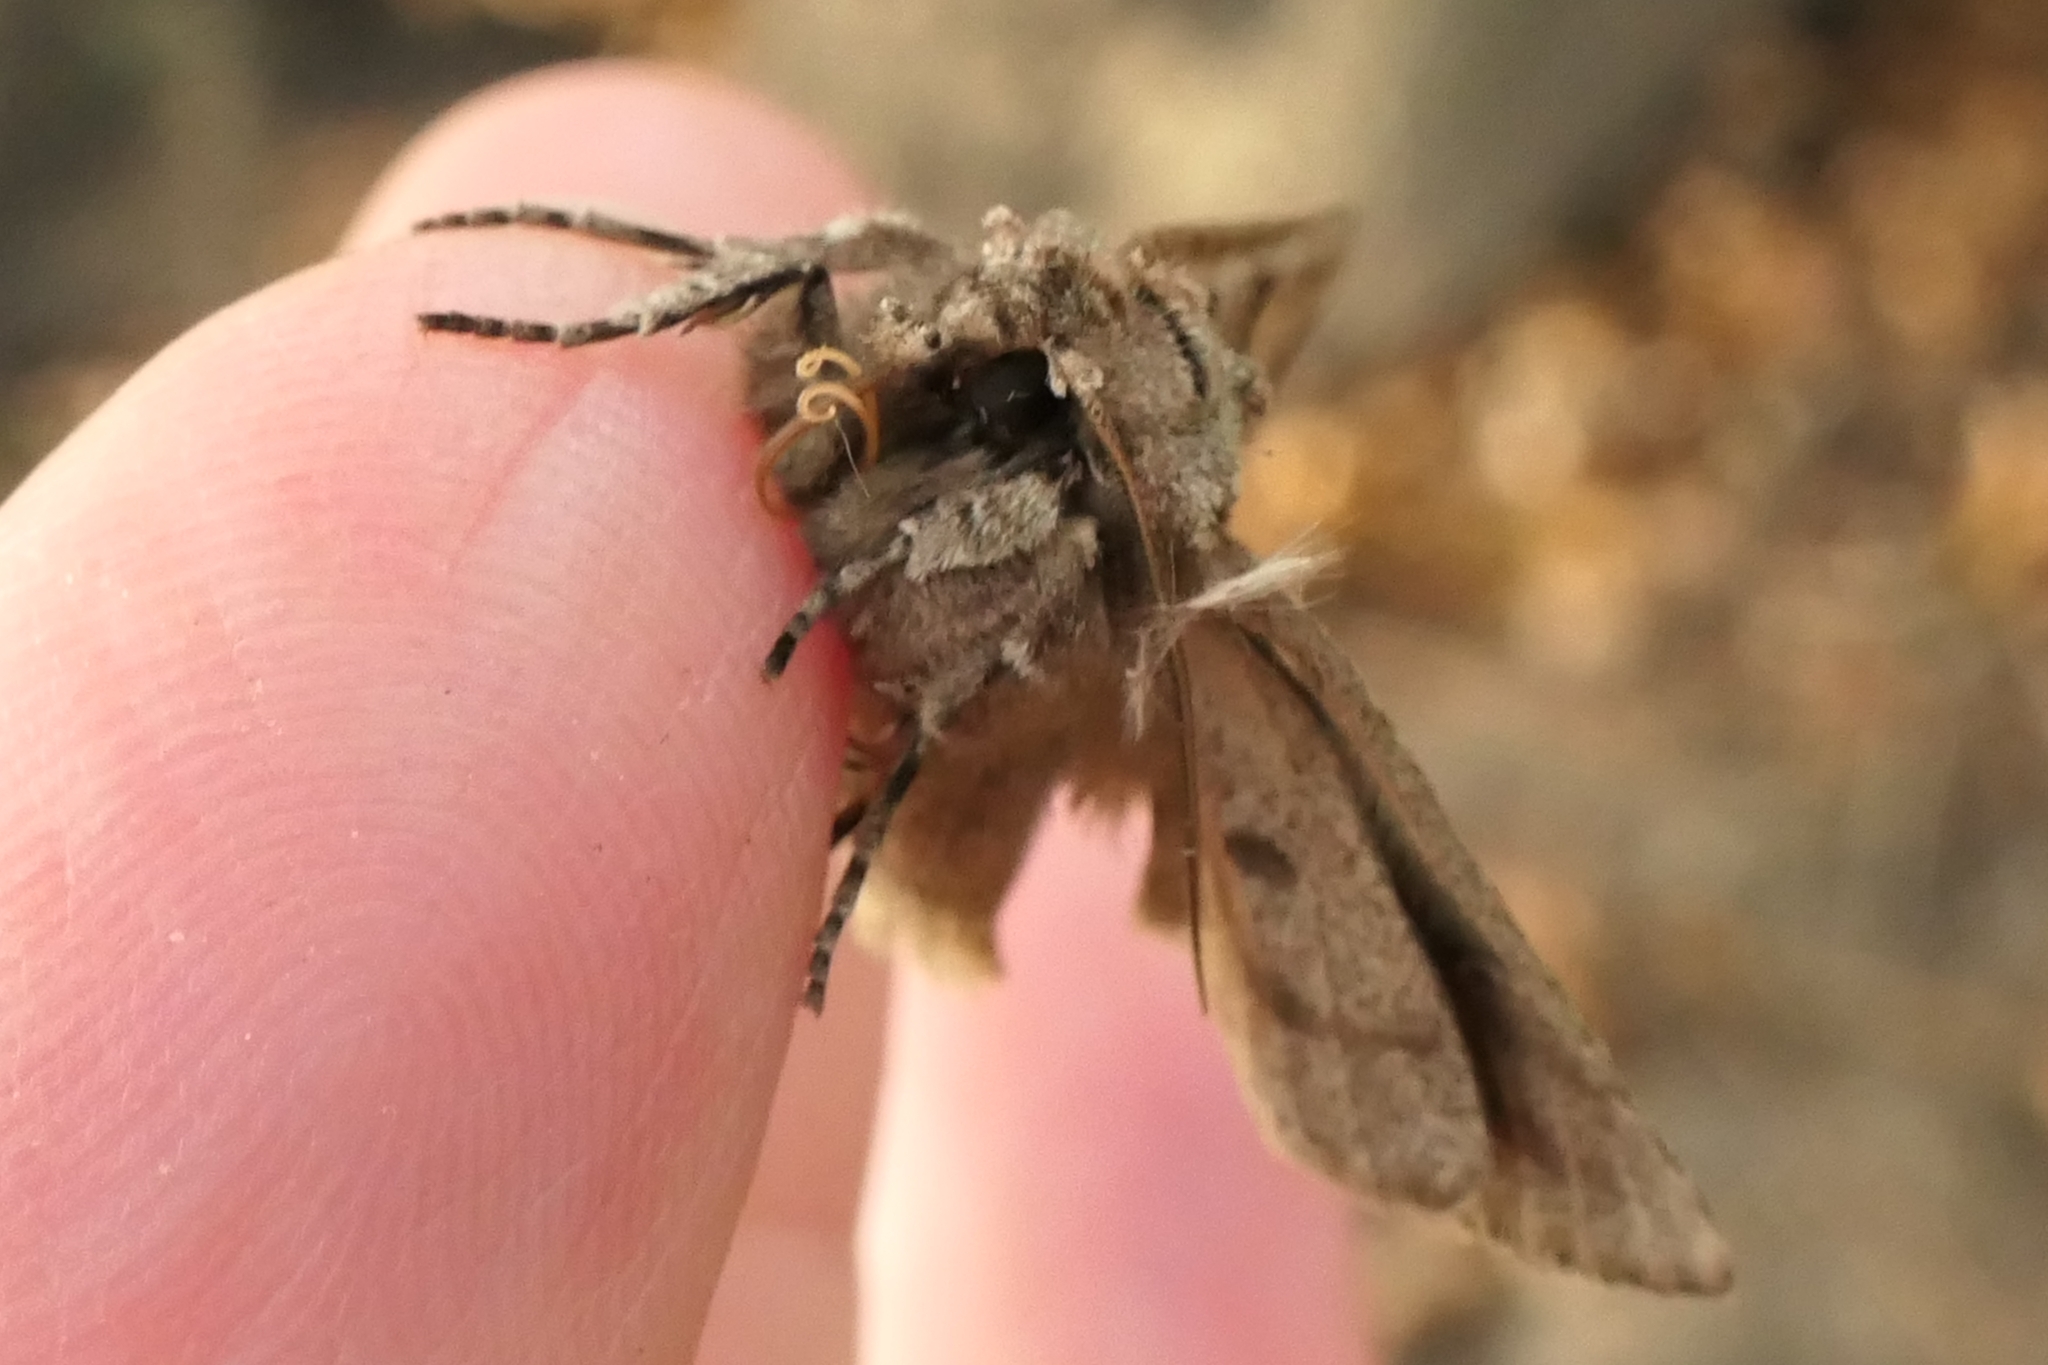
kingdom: Animalia
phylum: Arthropoda
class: Insecta
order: Lepidoptera
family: Noctuidae
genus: Ichneutica
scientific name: Ichneutica
